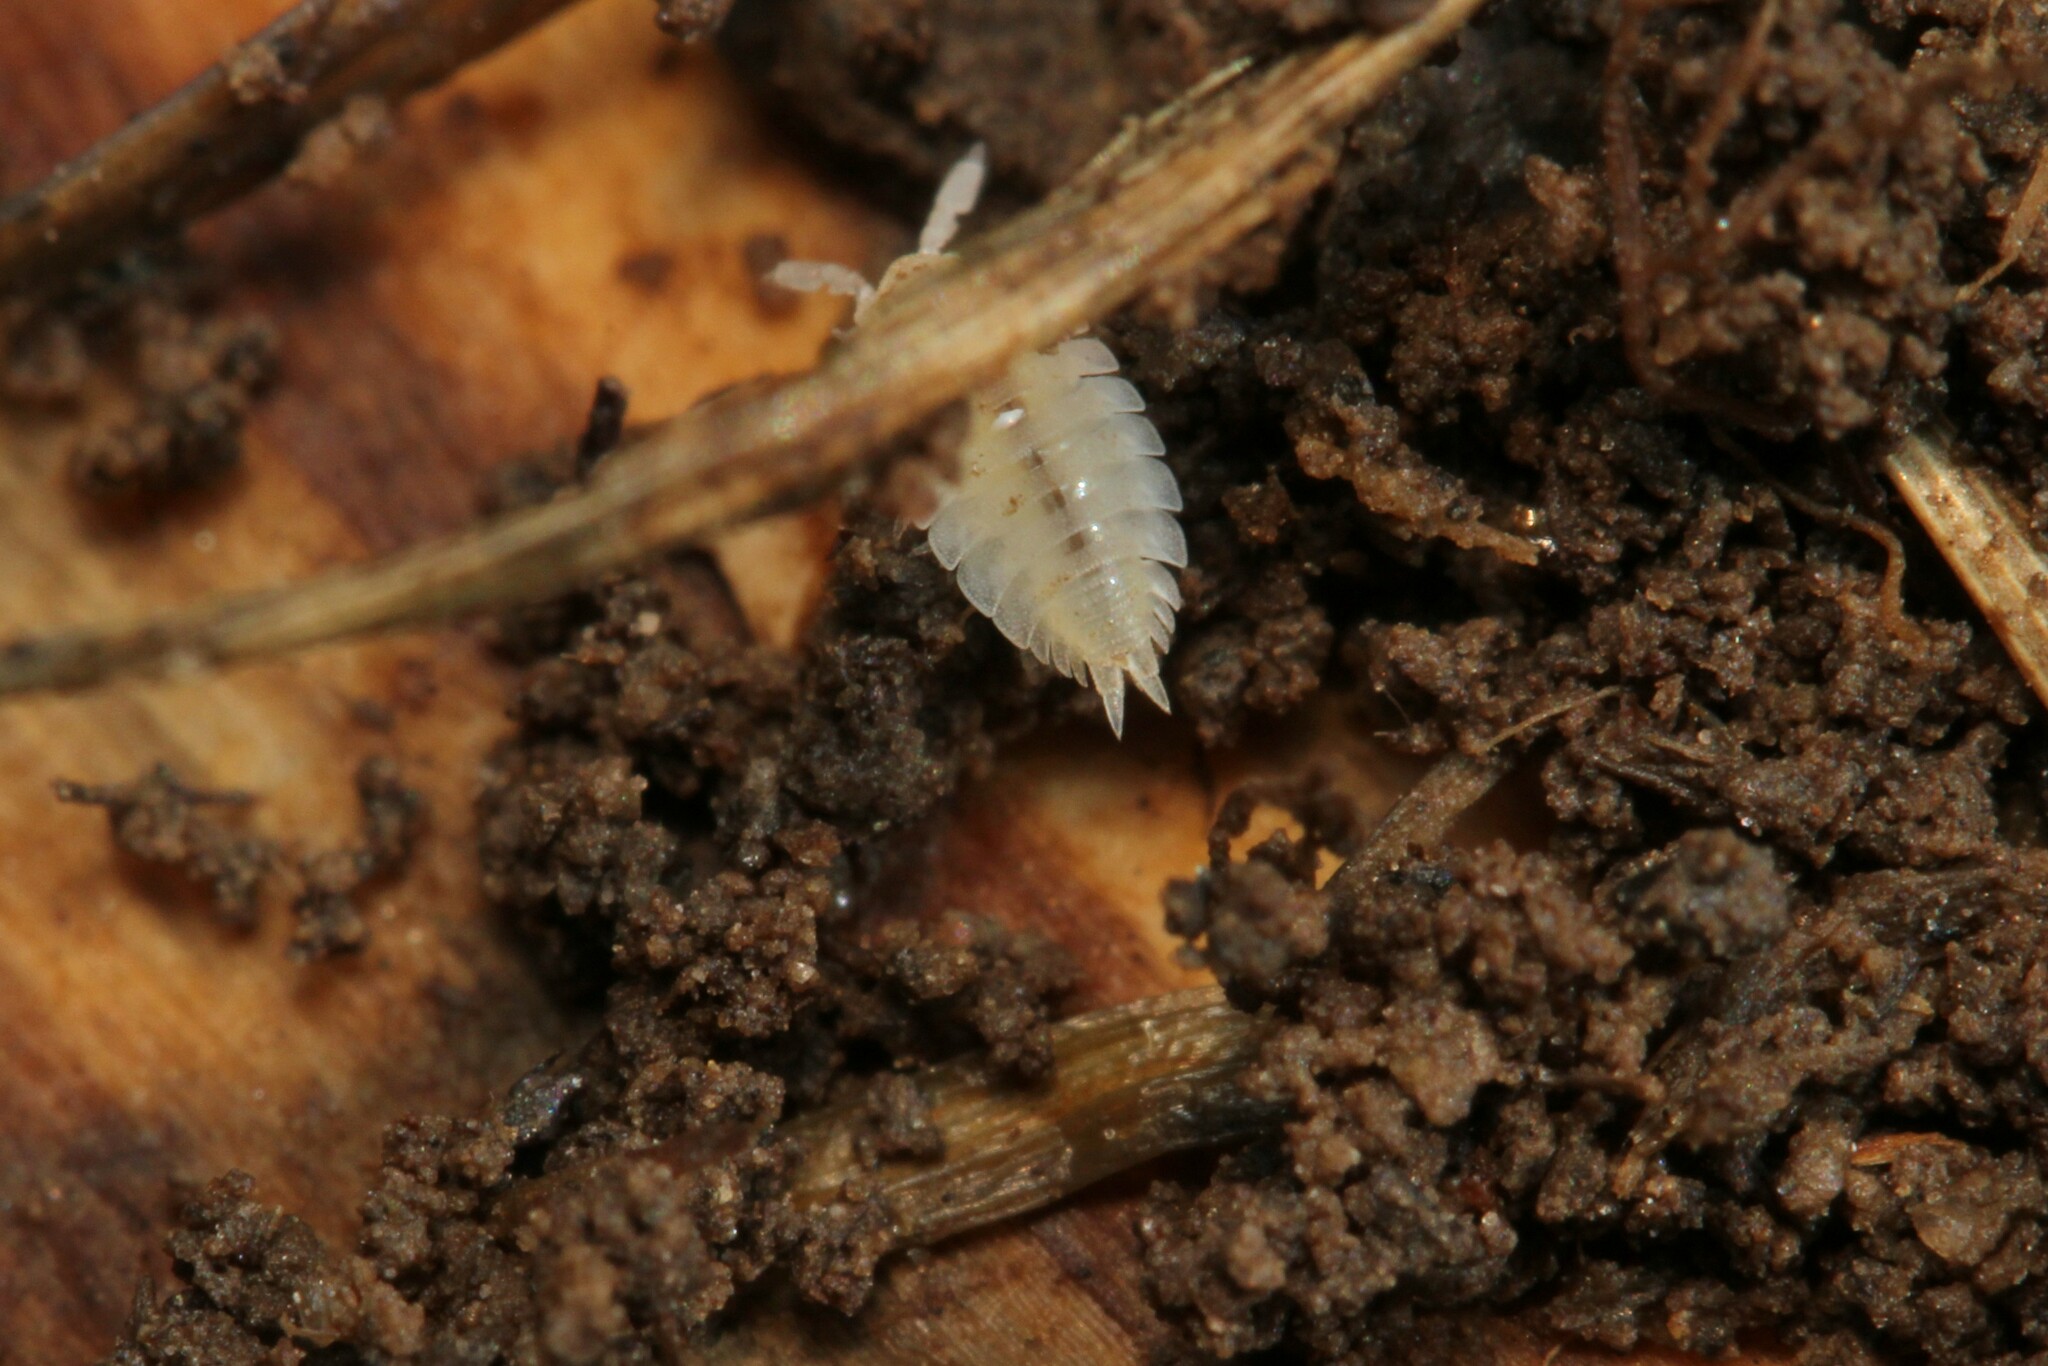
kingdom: Animalia
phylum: Arthropoda
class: Malacostraca
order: Isopoda
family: Platyarthridae
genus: Platyarthrus
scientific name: Platyarthrus hoffmannseggii
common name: Ant woodlouse
